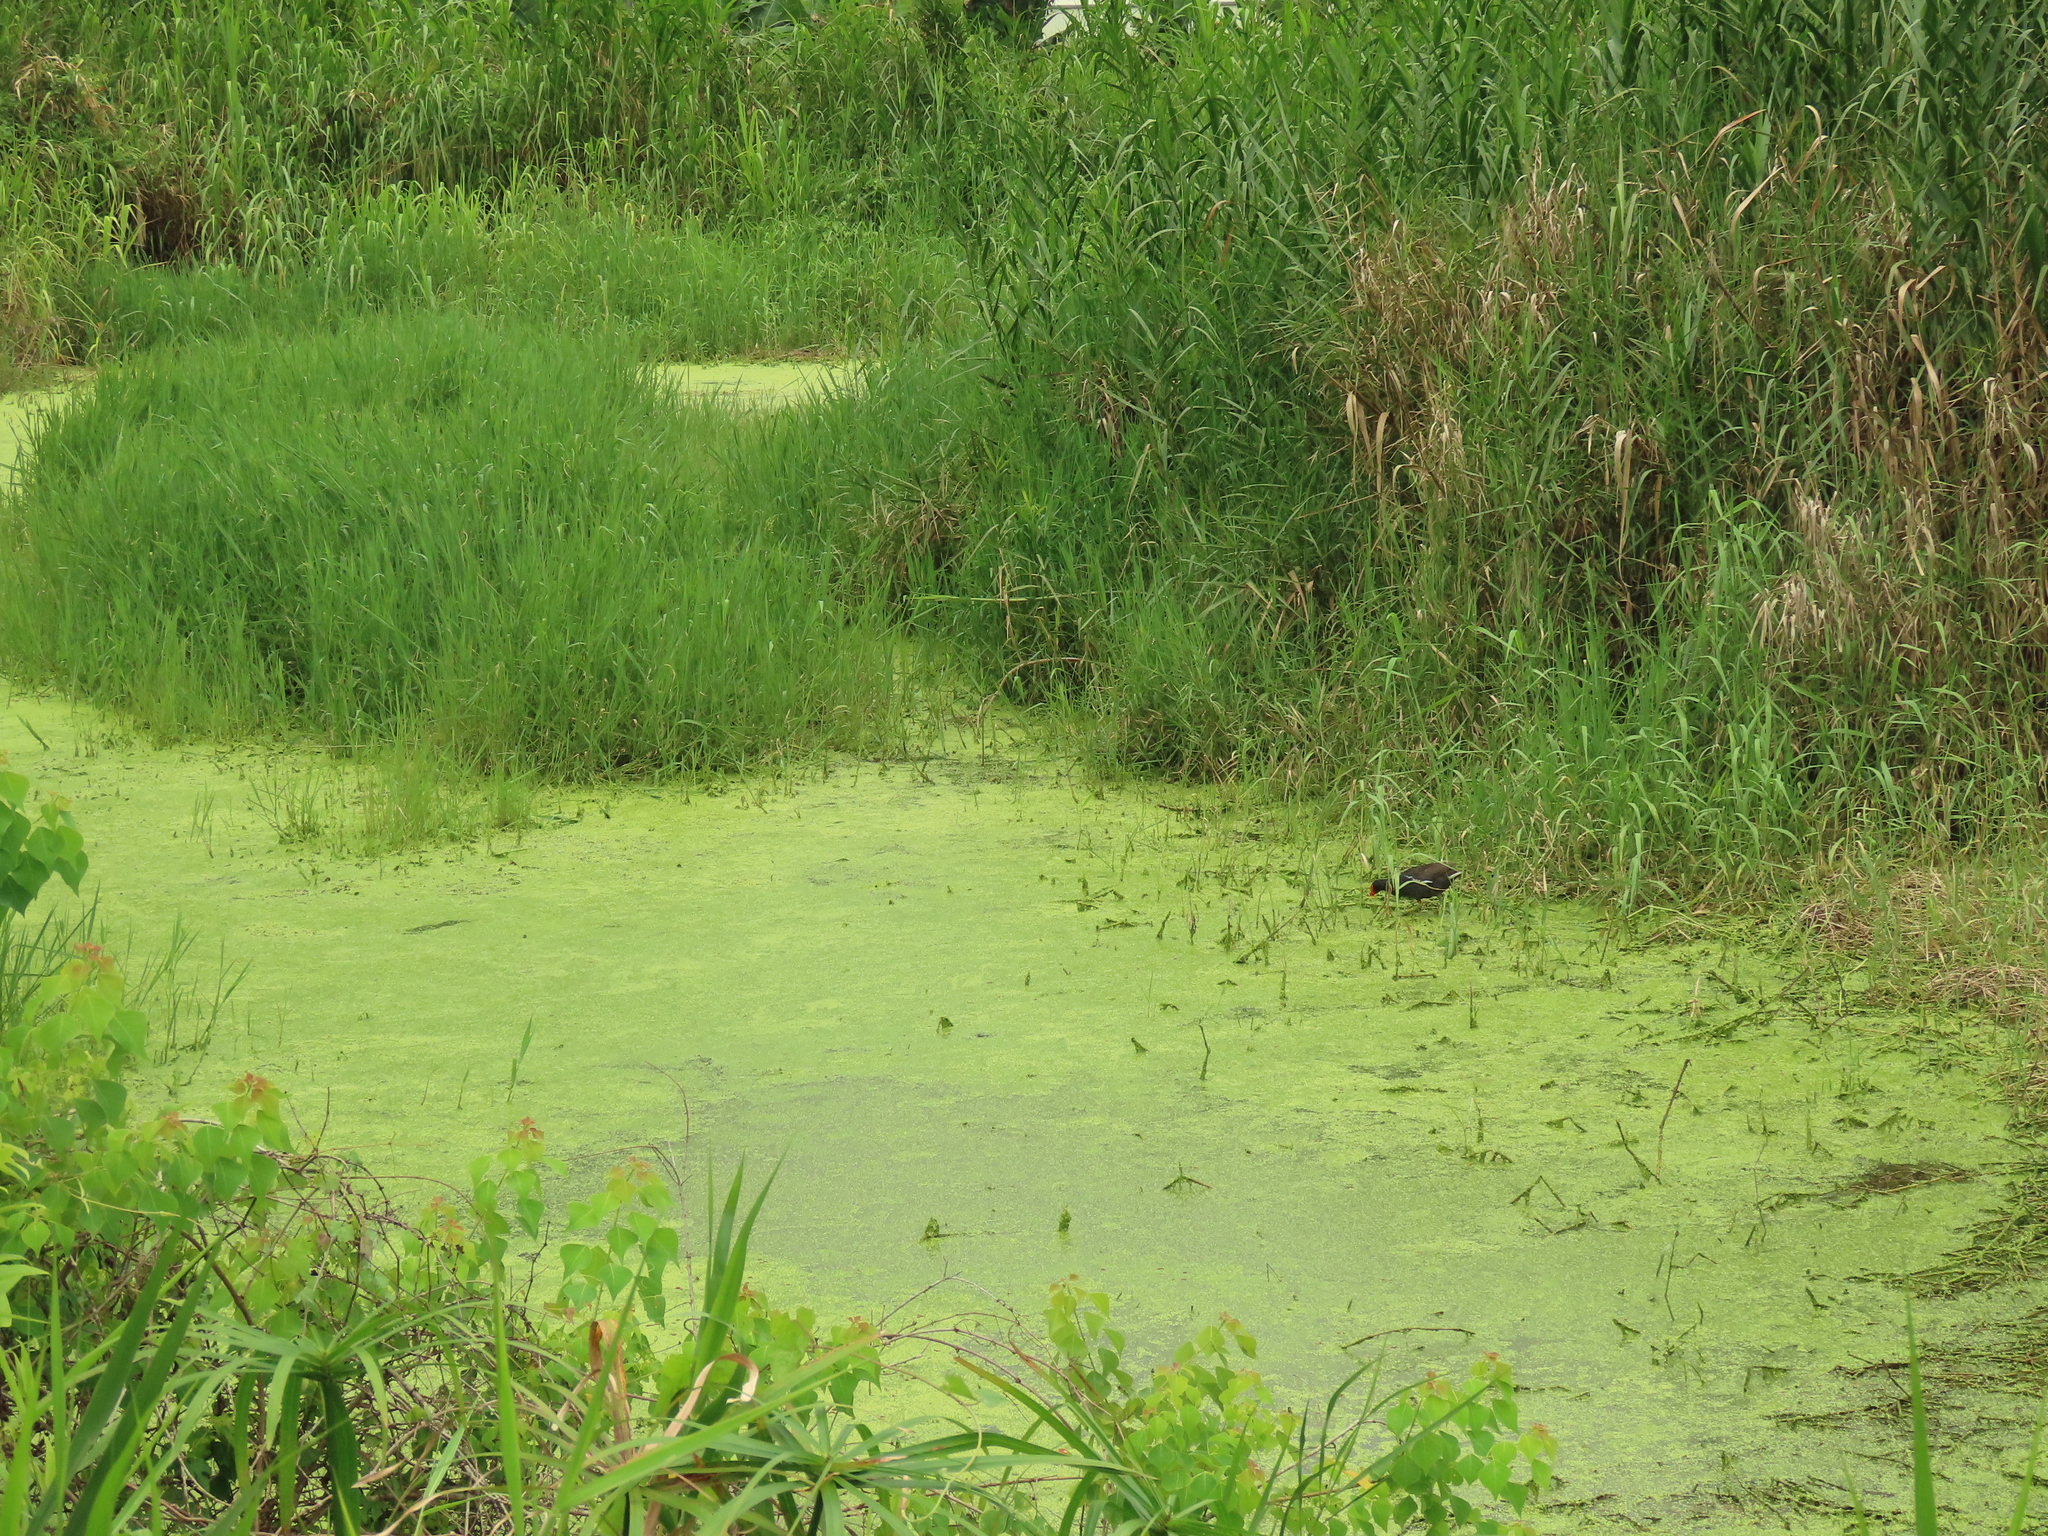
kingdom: Plantae
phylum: Tracheophyta
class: Liliopsida
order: Alismatales
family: Araceae
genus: Lemna
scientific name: Lemna aequinoctialis
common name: Duckweed
